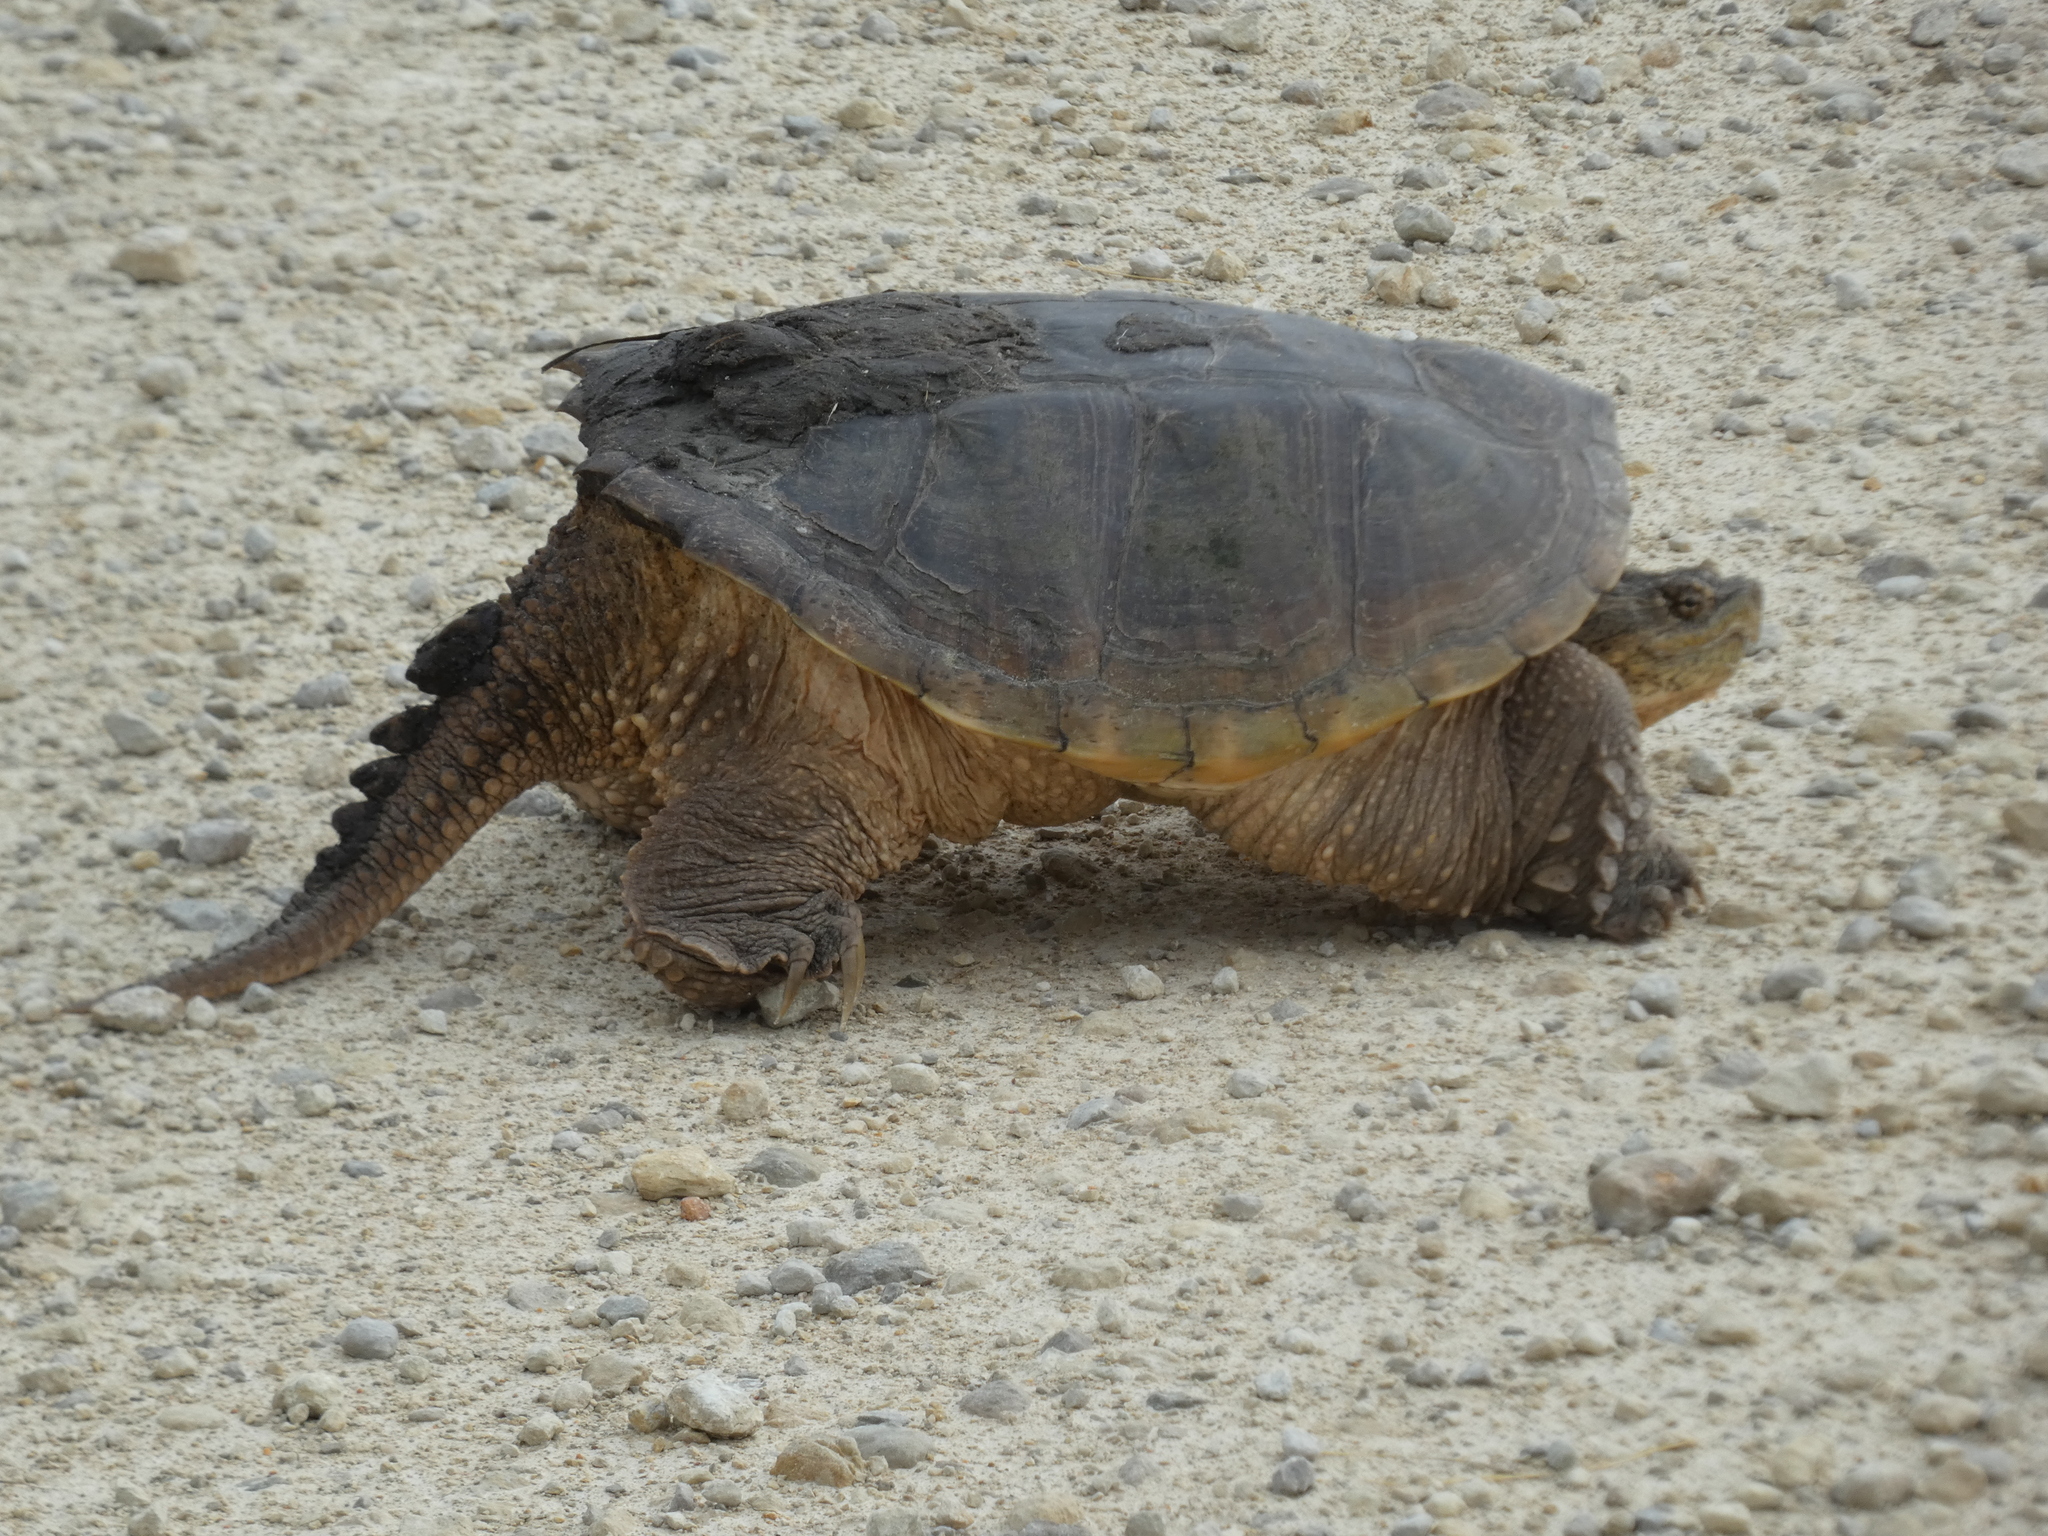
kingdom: Animalia
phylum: Chordata
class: Testudines
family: Chelydridae
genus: Chelydra
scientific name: Chelydra serpentina
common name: Common snapping turtle
